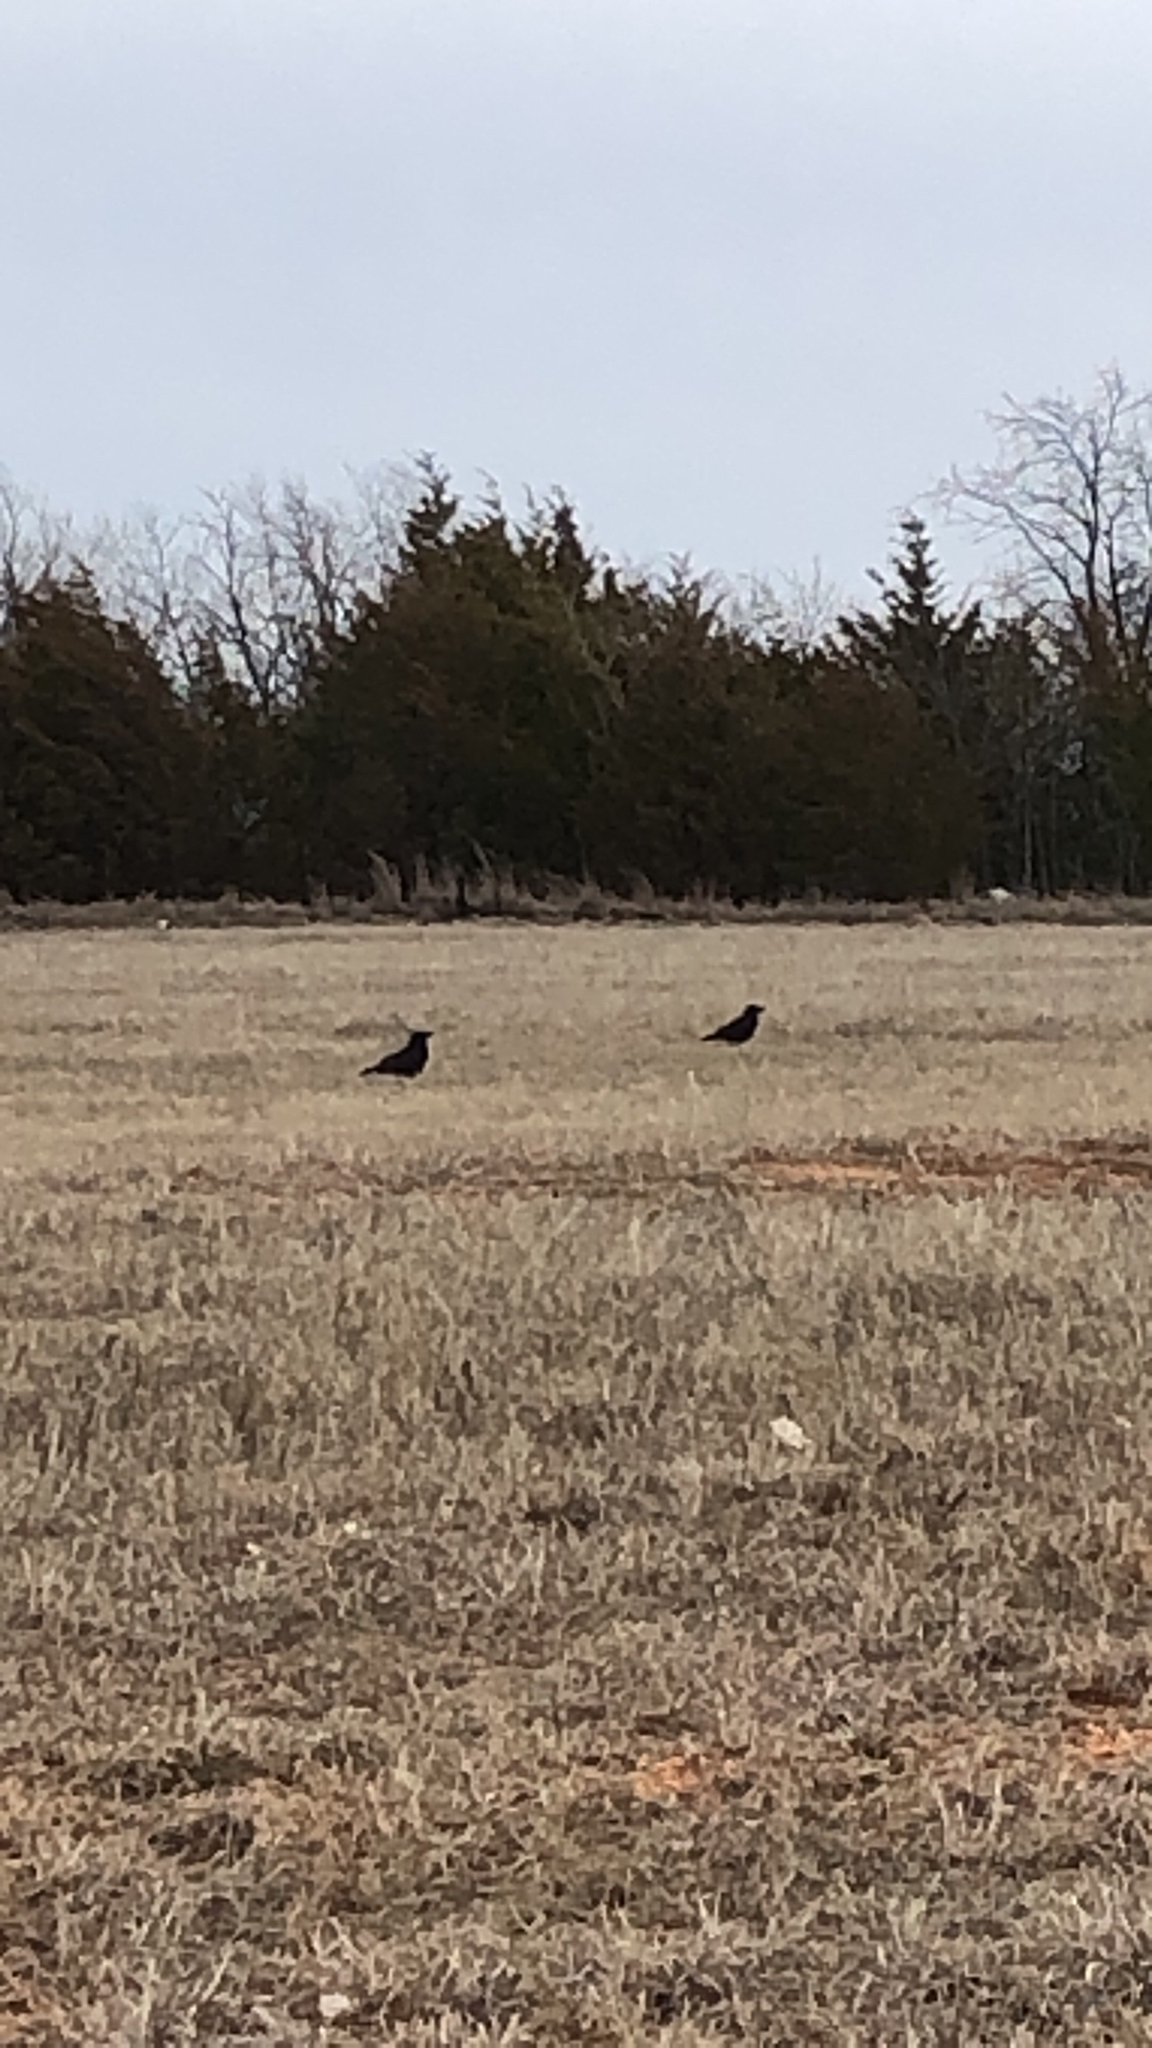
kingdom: Animalia
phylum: Chordata
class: Aves
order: Passeriformes
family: Corvidae
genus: Corvus
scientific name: Corvus brachyrhynchos
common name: American crow
